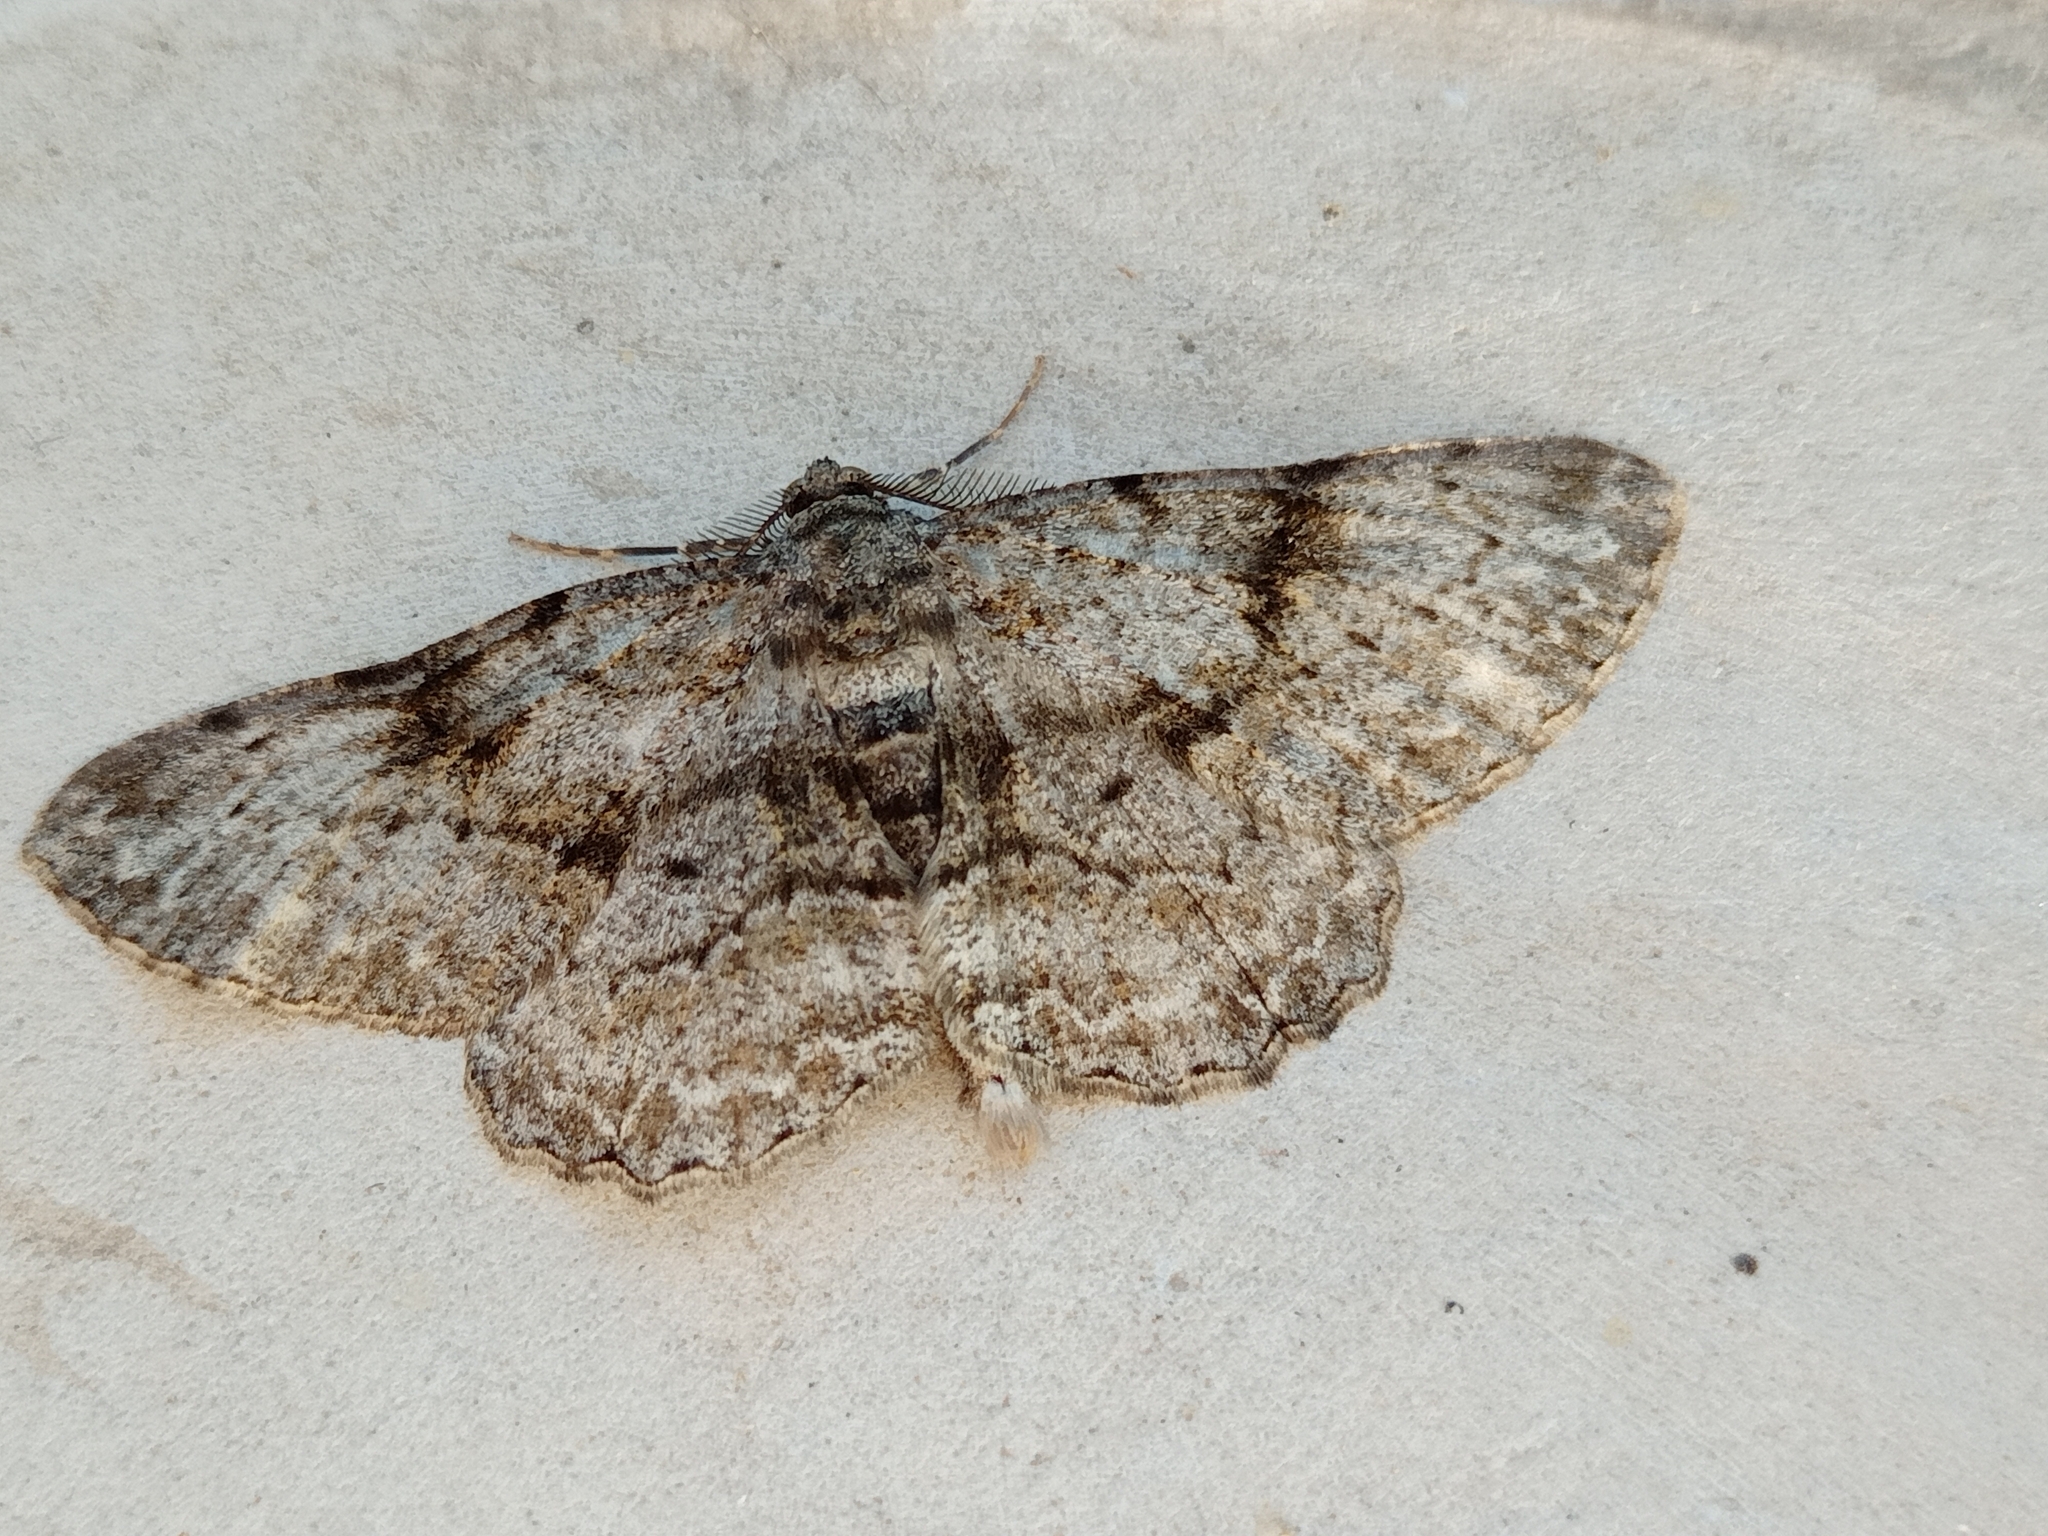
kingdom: Animalia
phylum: Arthropoda
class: Insecta
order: Lepidoptera
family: Geometridae
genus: Peribatodes
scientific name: Peribatodes rhomboidaria
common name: Willow beauty
